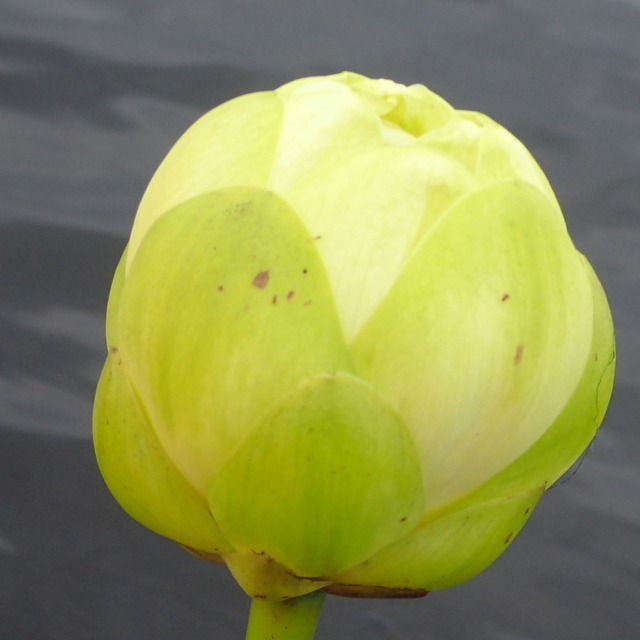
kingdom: Plantae
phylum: Tracheophyta
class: Magnoliopsida
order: Proteales
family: Nelumbonaceae
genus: Nelumbo
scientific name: Nelumbo lutea
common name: American lotus
